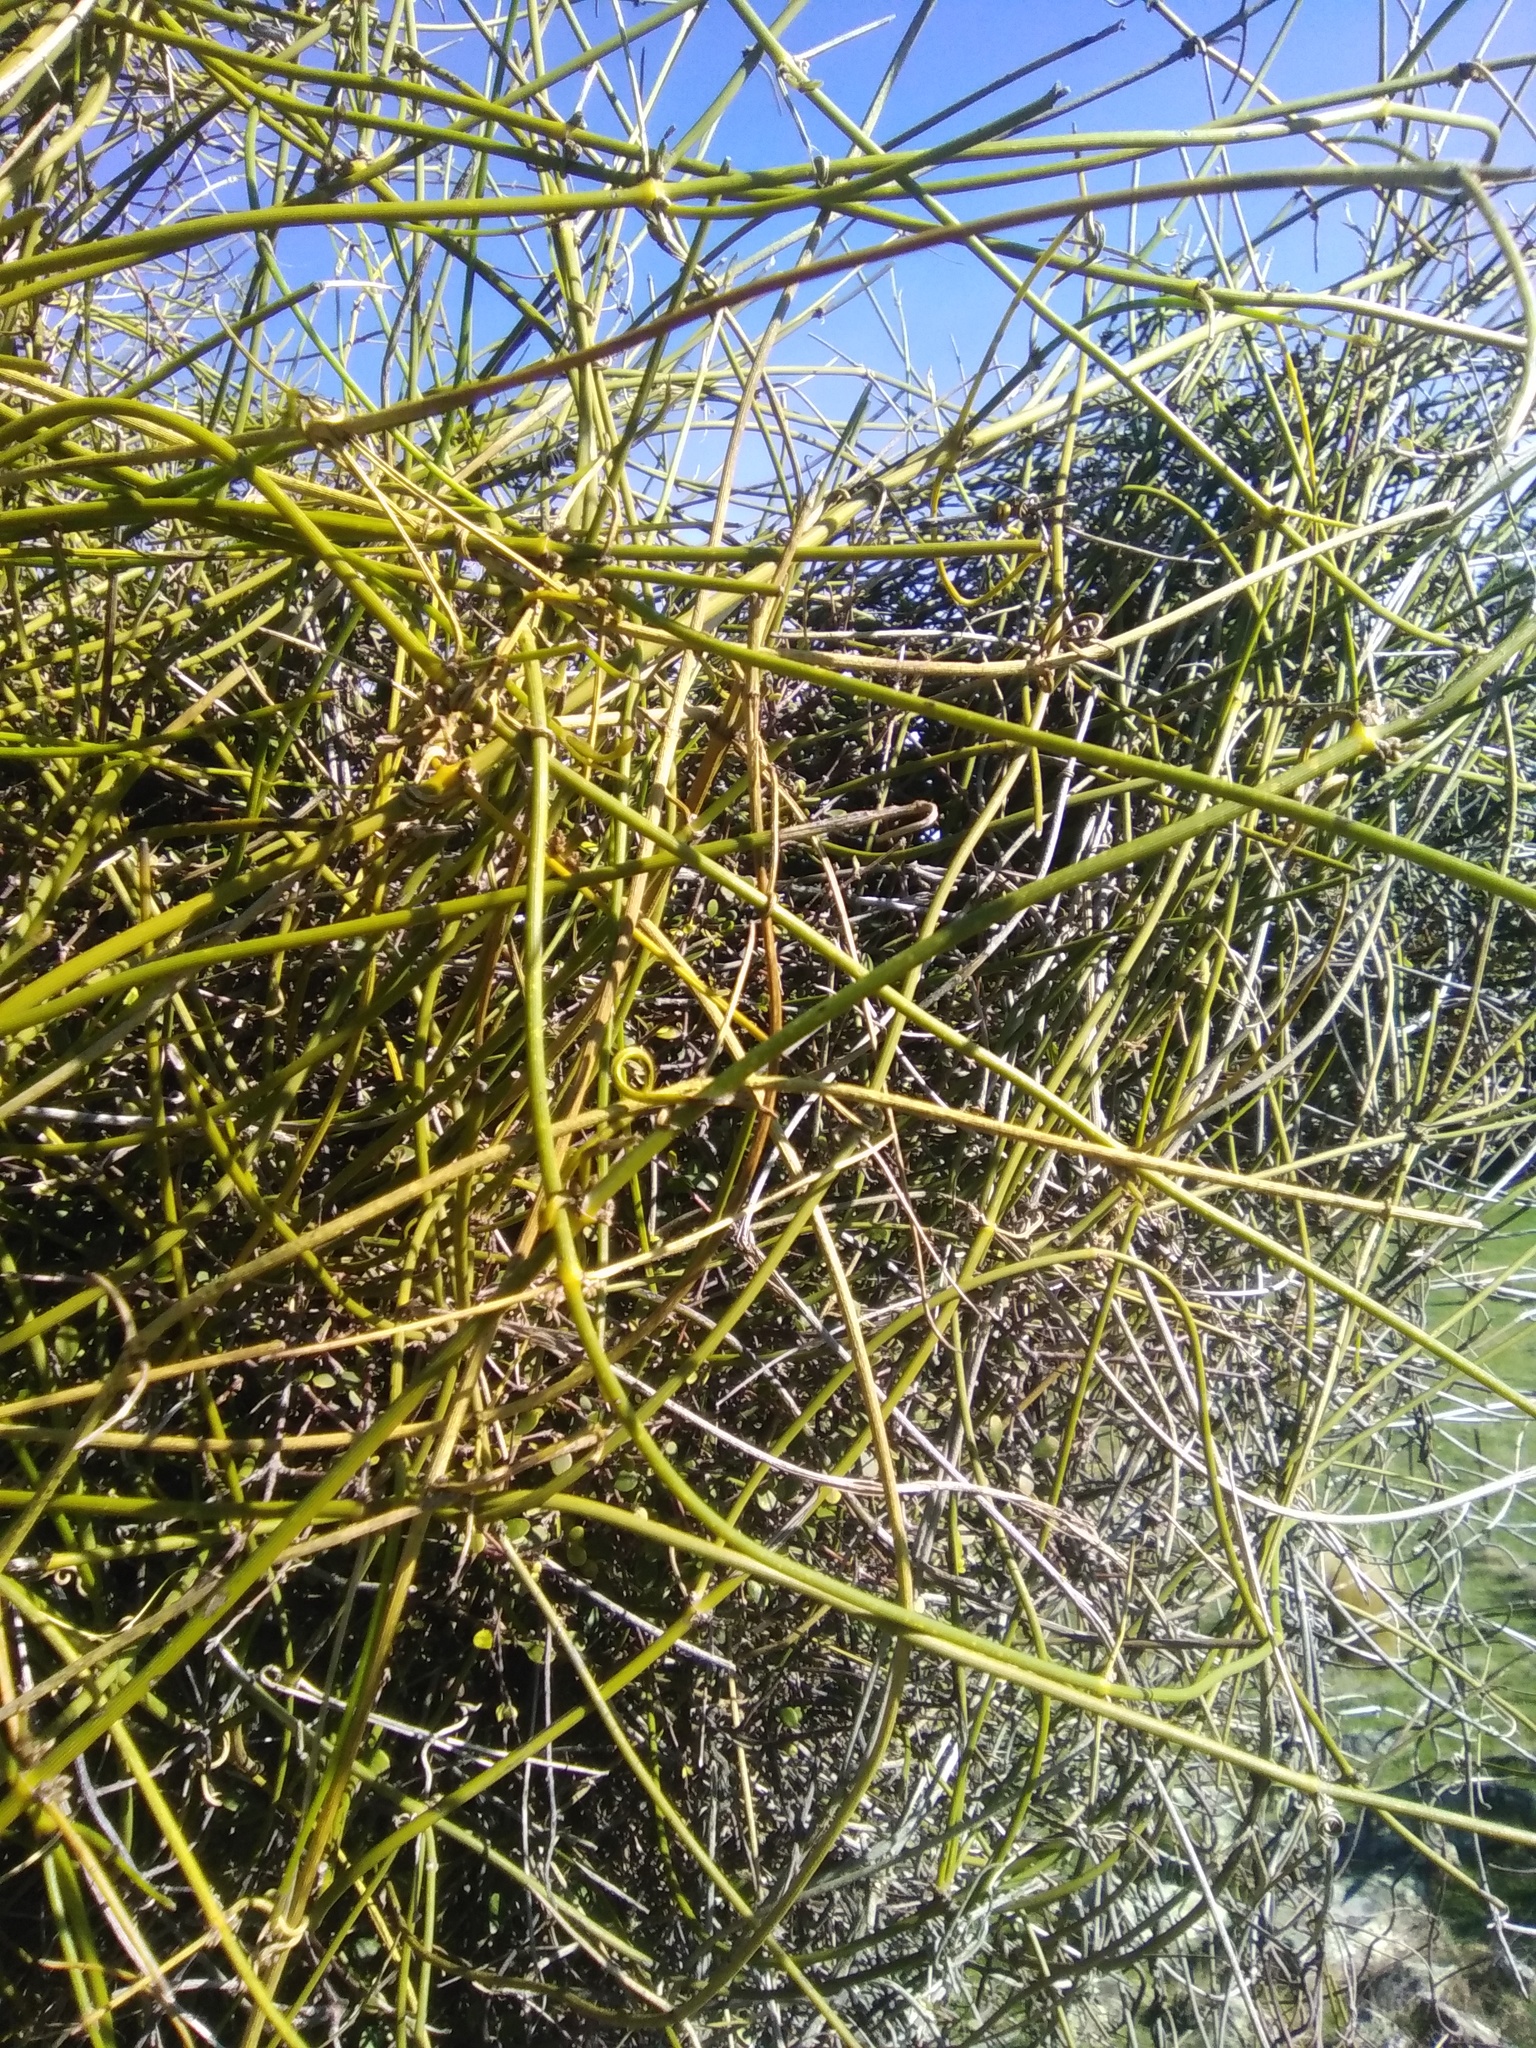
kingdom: Plantae
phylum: Tracheophyta
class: Magnoliopsida
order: Ranunculales
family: Ranunculaceae
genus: Clematis
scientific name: Clematis afoliata
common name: Rush-stem clematis
